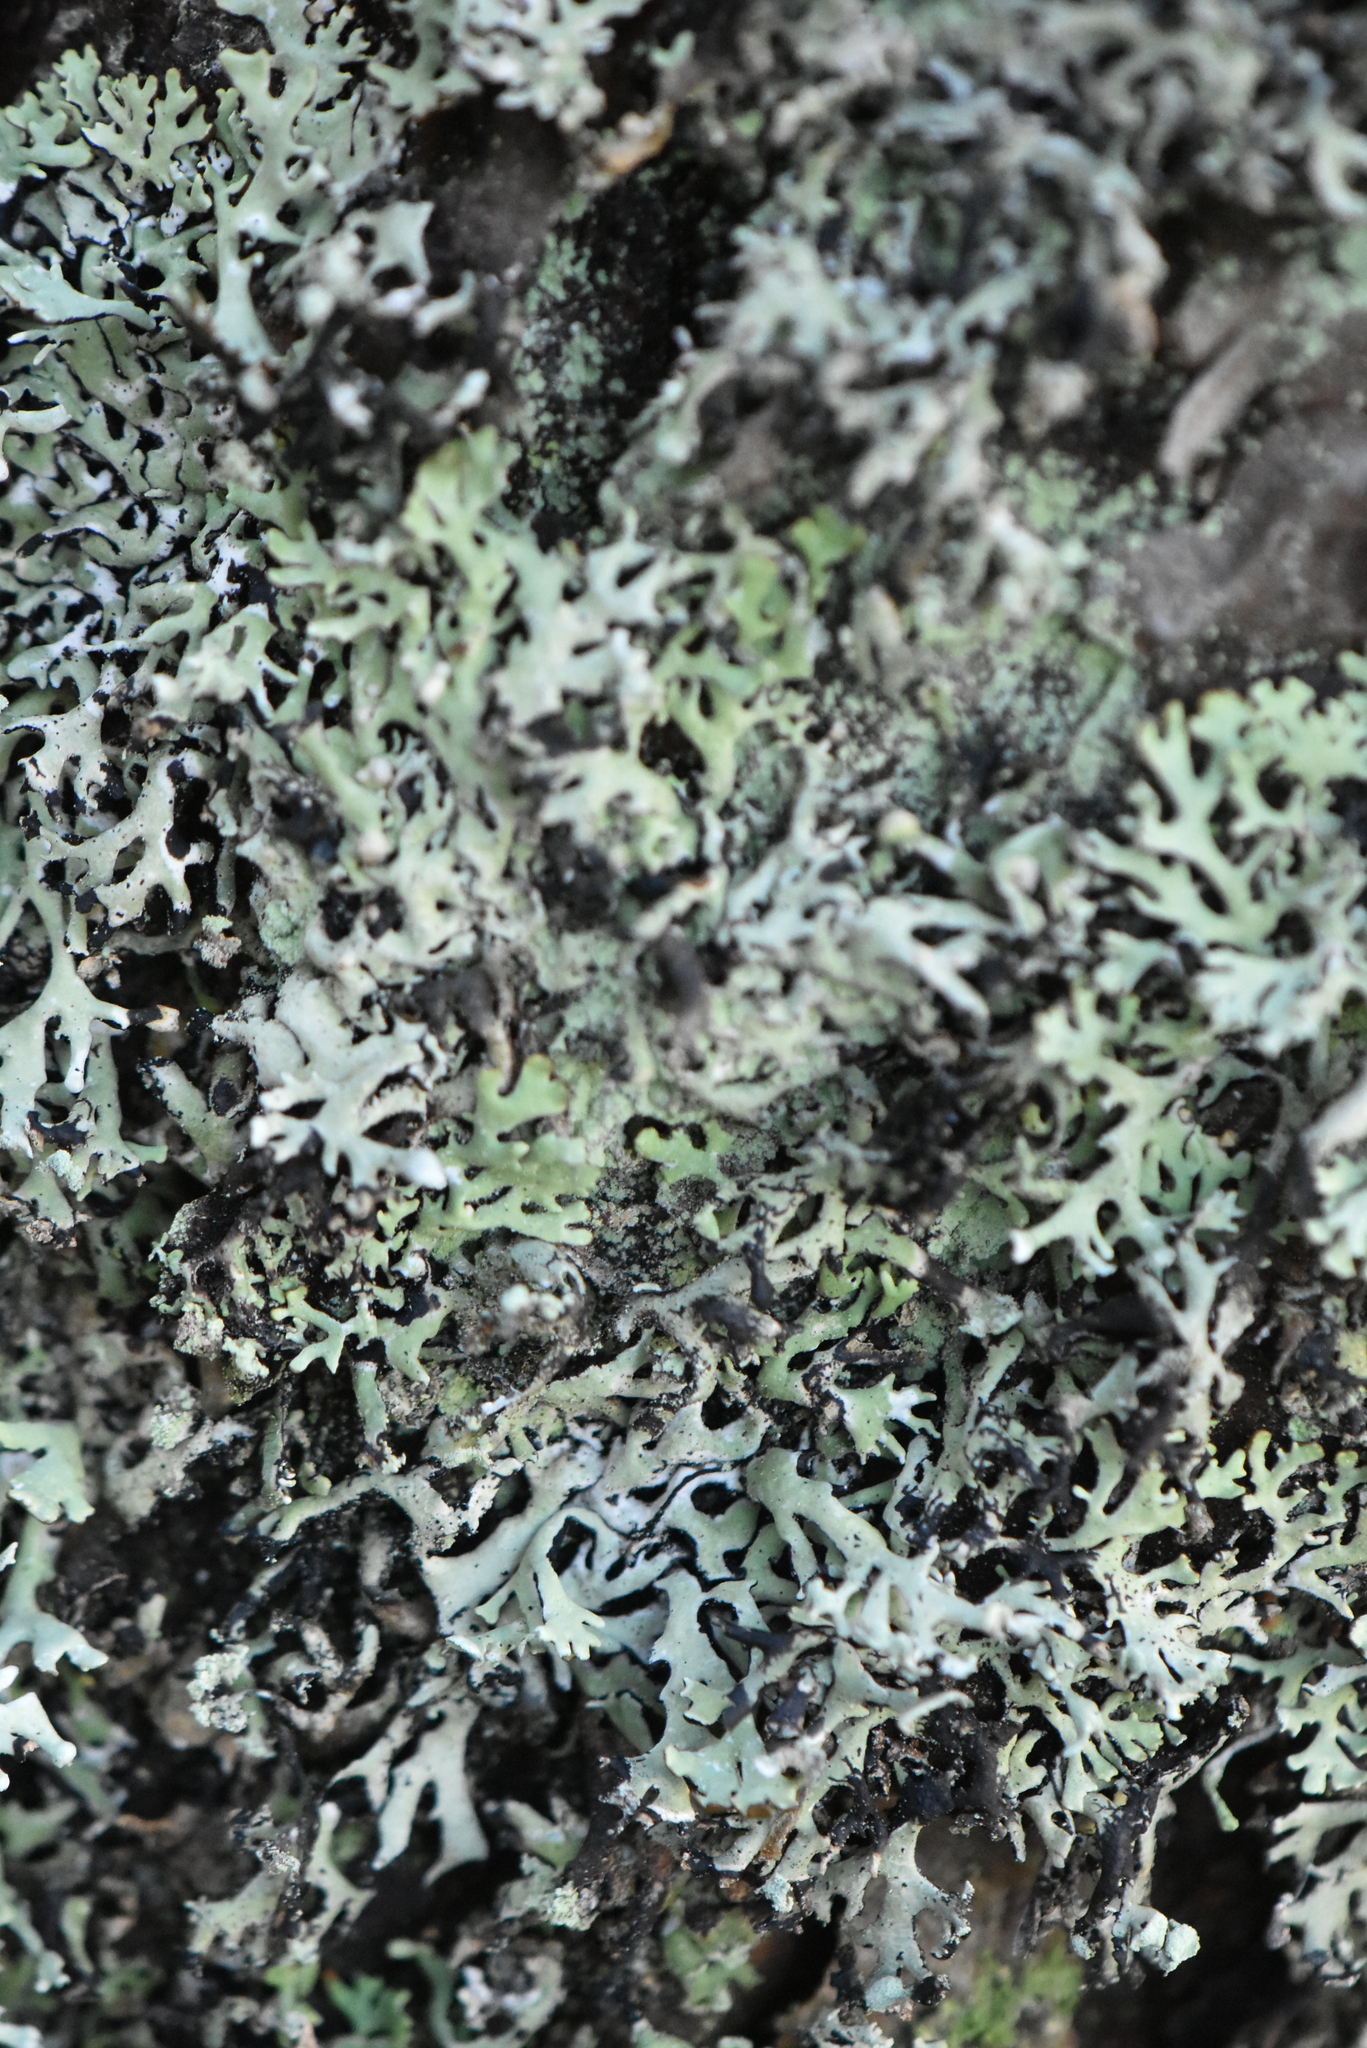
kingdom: Fungi
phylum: Ascomycota
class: Lecanoromycetes
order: Lecanorales
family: Parmeliaceae
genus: Hypogymnia
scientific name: Hypogymnia physodes
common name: Dark crottle
